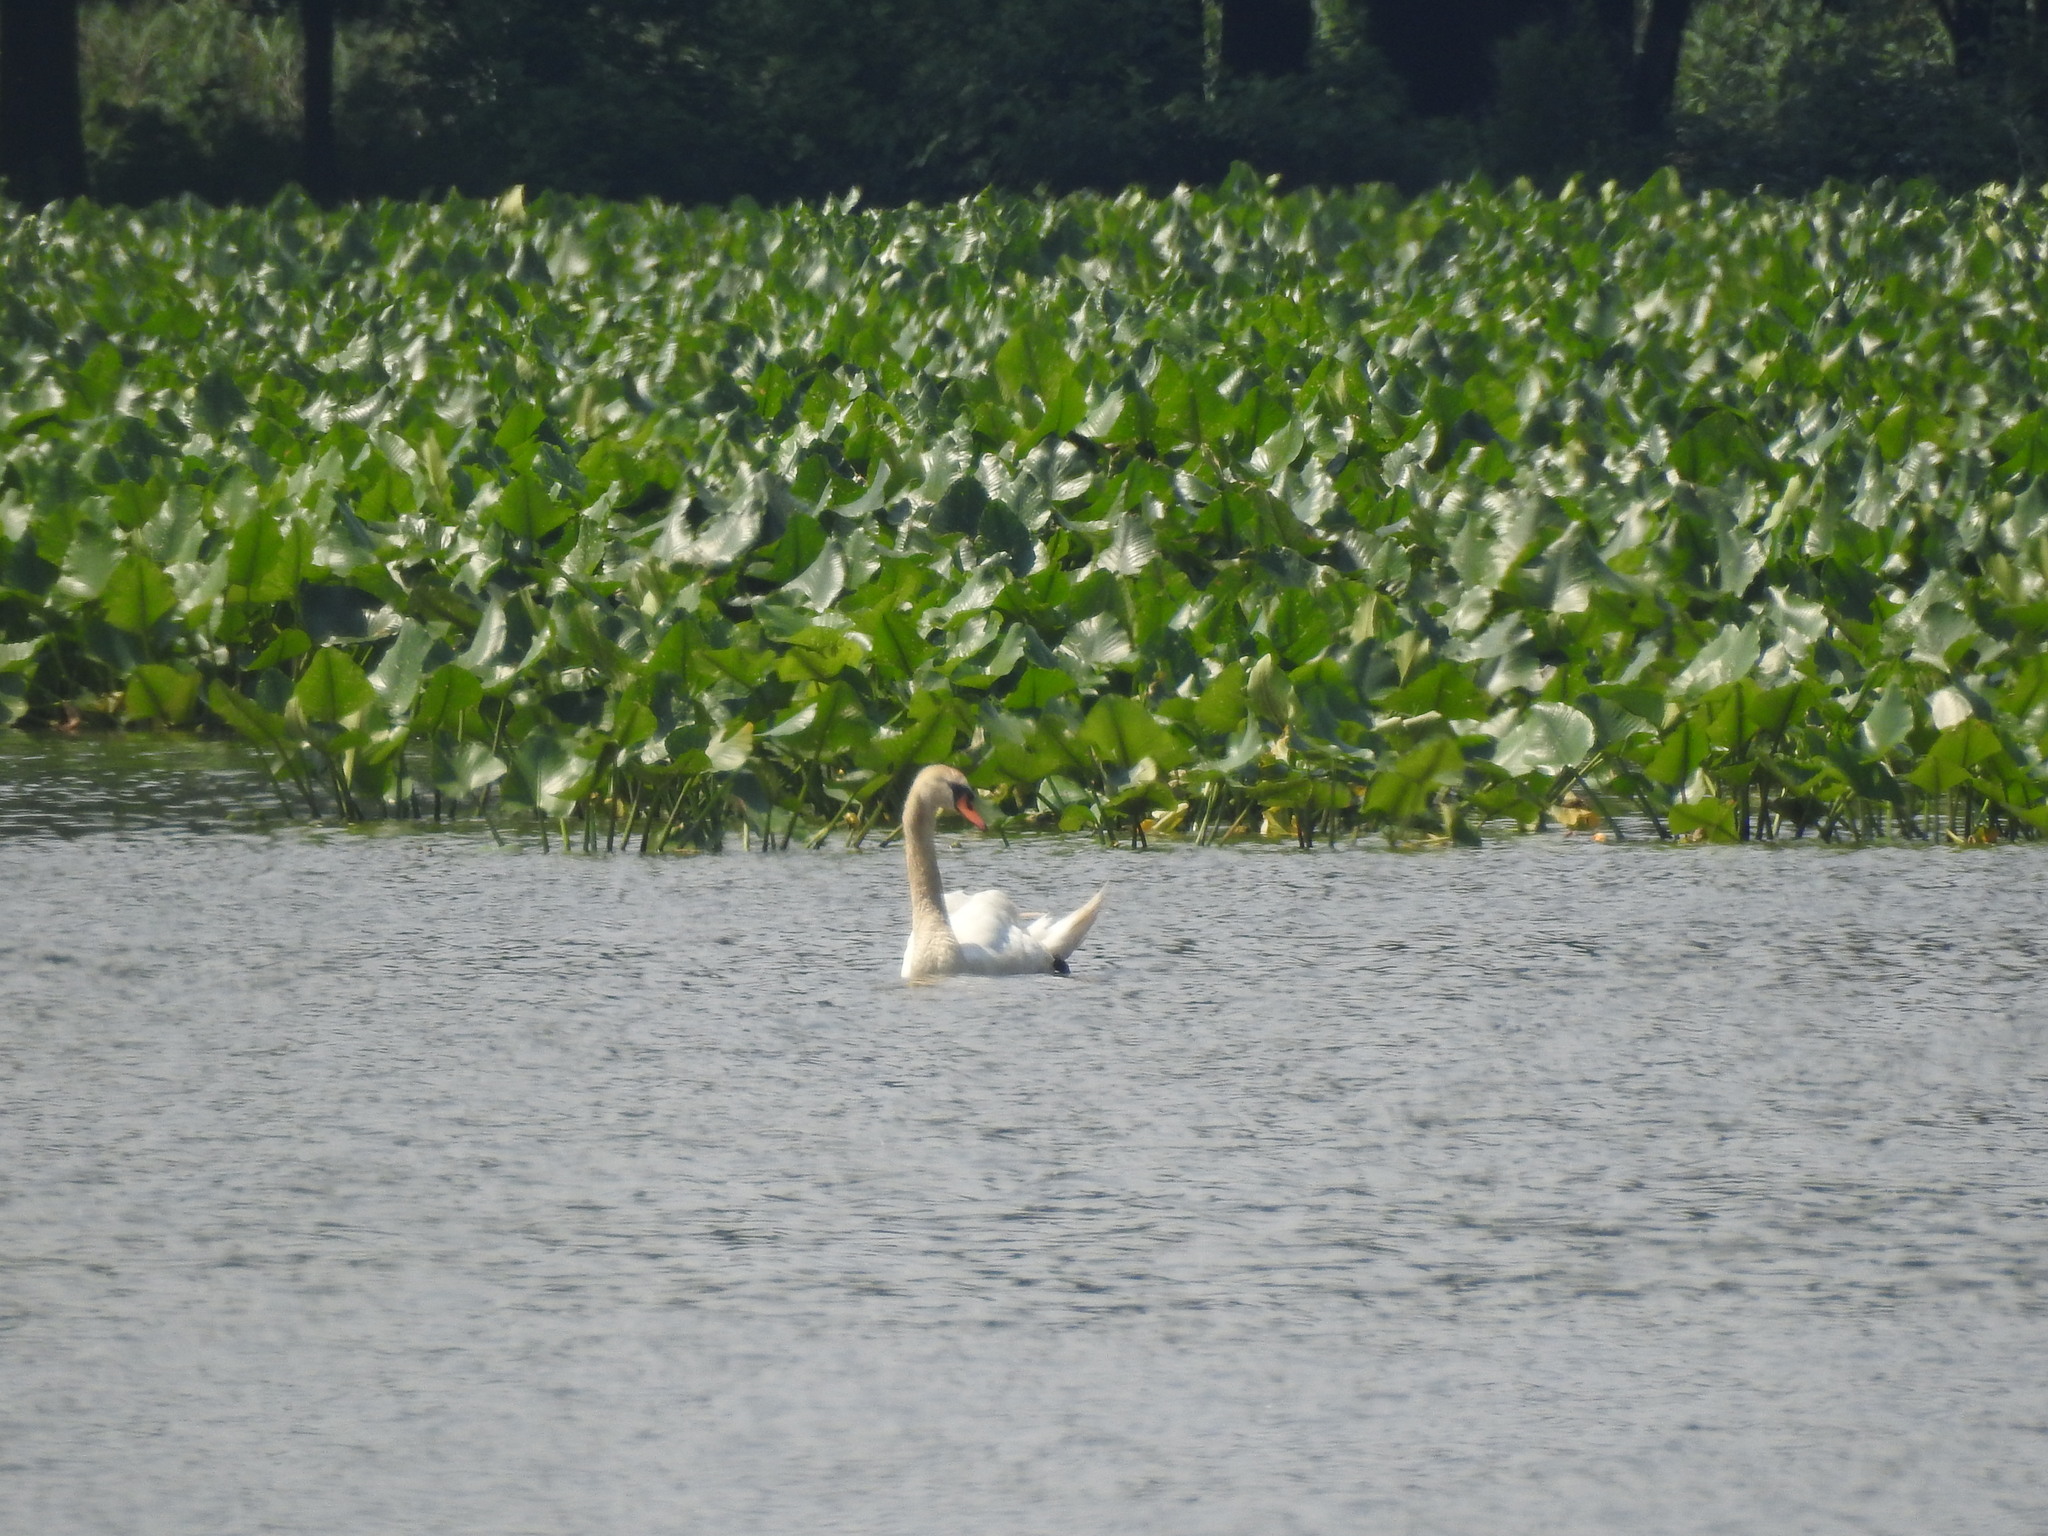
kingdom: Animalia
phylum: Chordata
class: Aves
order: Anseriformes
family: Anatidae
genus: Cygnus
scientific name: Cygnus olor
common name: Mute swan
